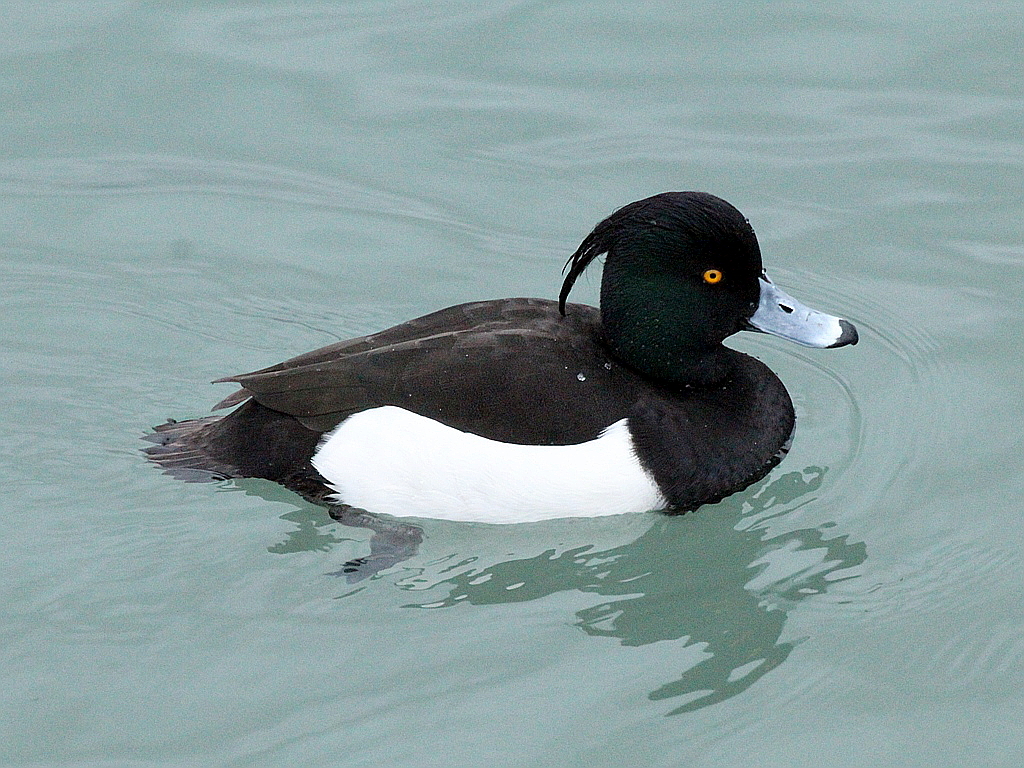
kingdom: Animalia
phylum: Chordata
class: Aves
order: Anseriformes
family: Anatidae
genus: Aythya
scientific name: Aythya fuligula
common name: Tufted duck
